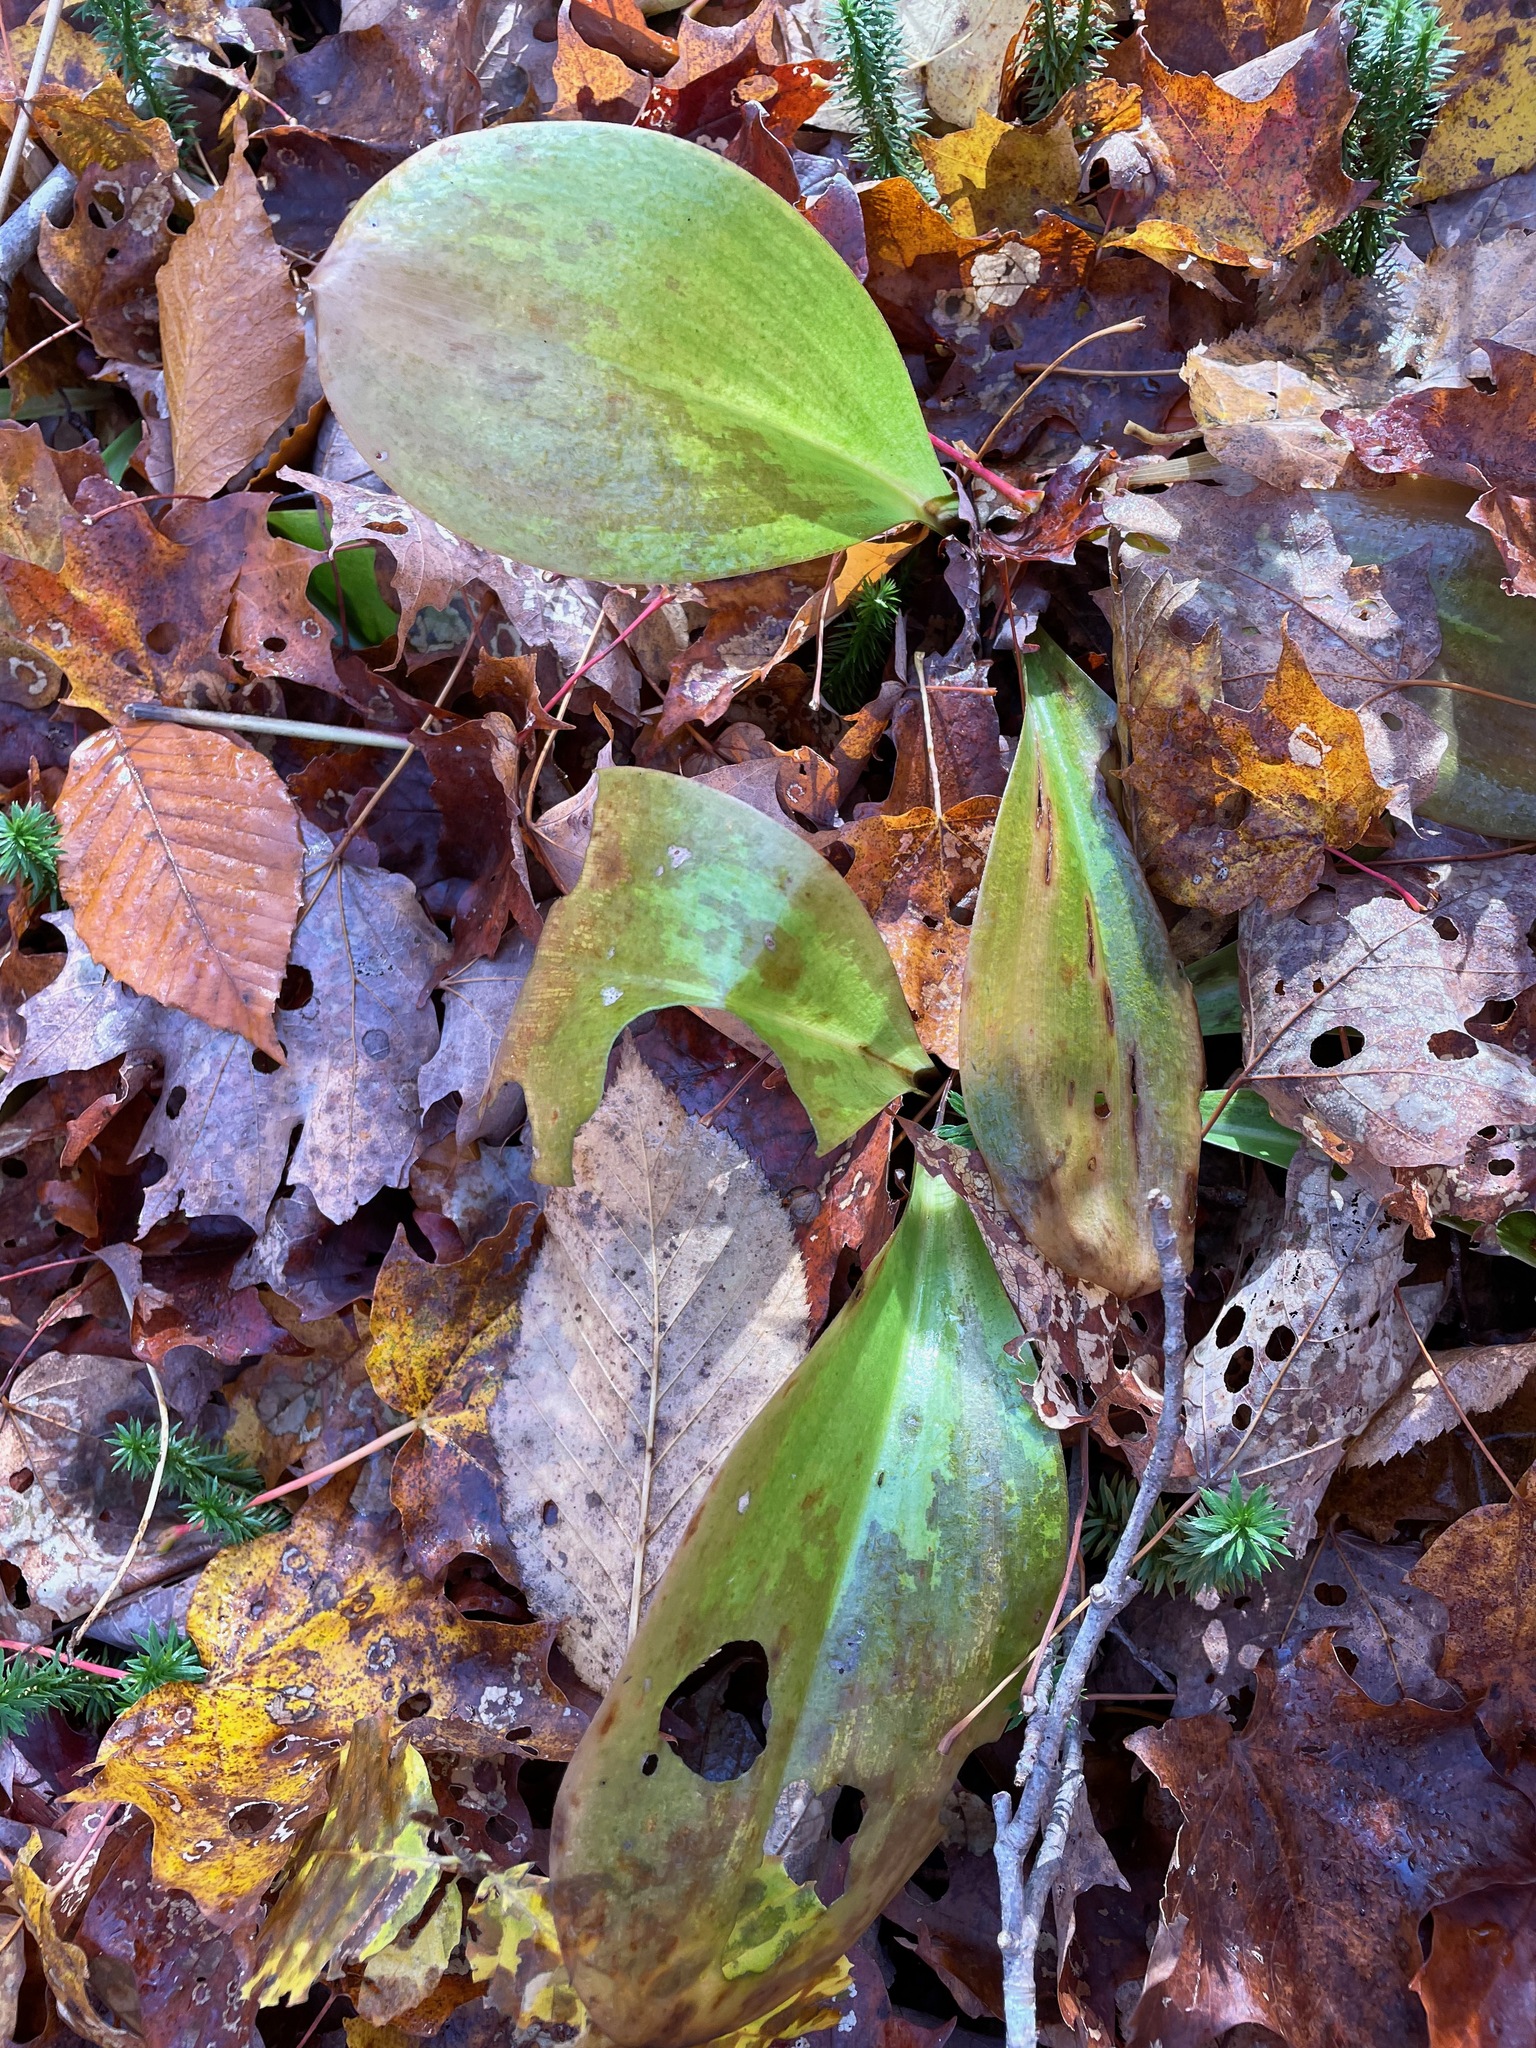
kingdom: Plantae
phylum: Tracheophyta
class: Liliopsida
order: Liliales
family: Liliaceae
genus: Clintonia
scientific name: Clintonia borealis
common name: Yellow clintonia
